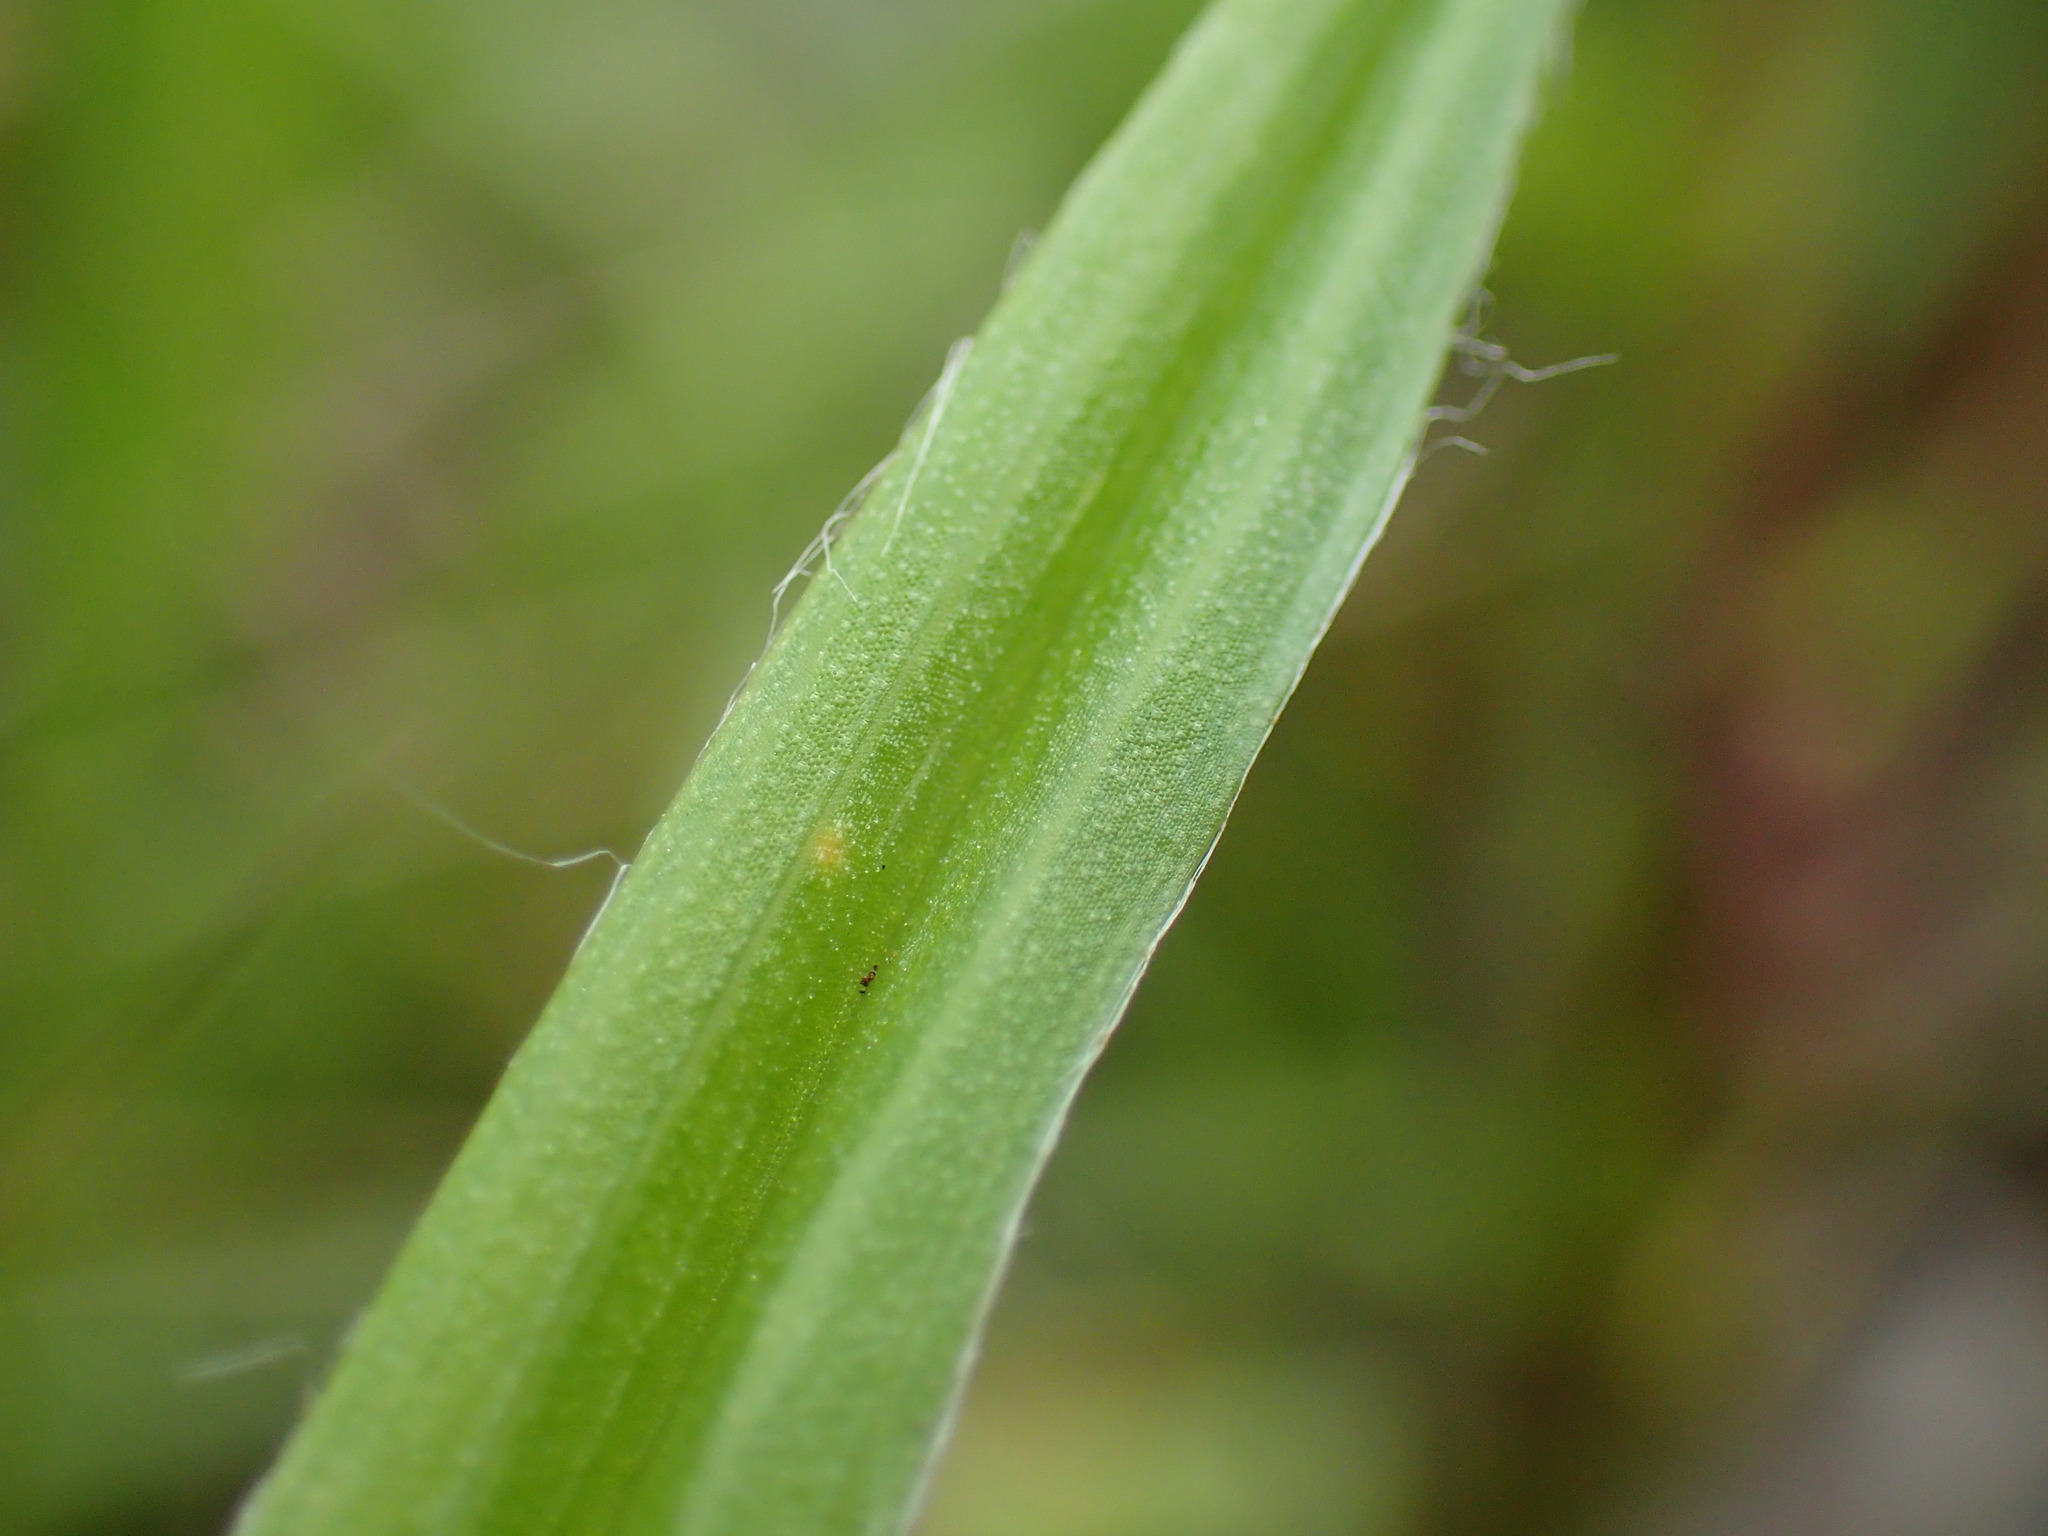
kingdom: Plantae
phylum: Tracheophyta
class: Liliopsida
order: Asparagales
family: Hypoxidaceae
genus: Hypoxis
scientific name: Hypoxis angustifolia
